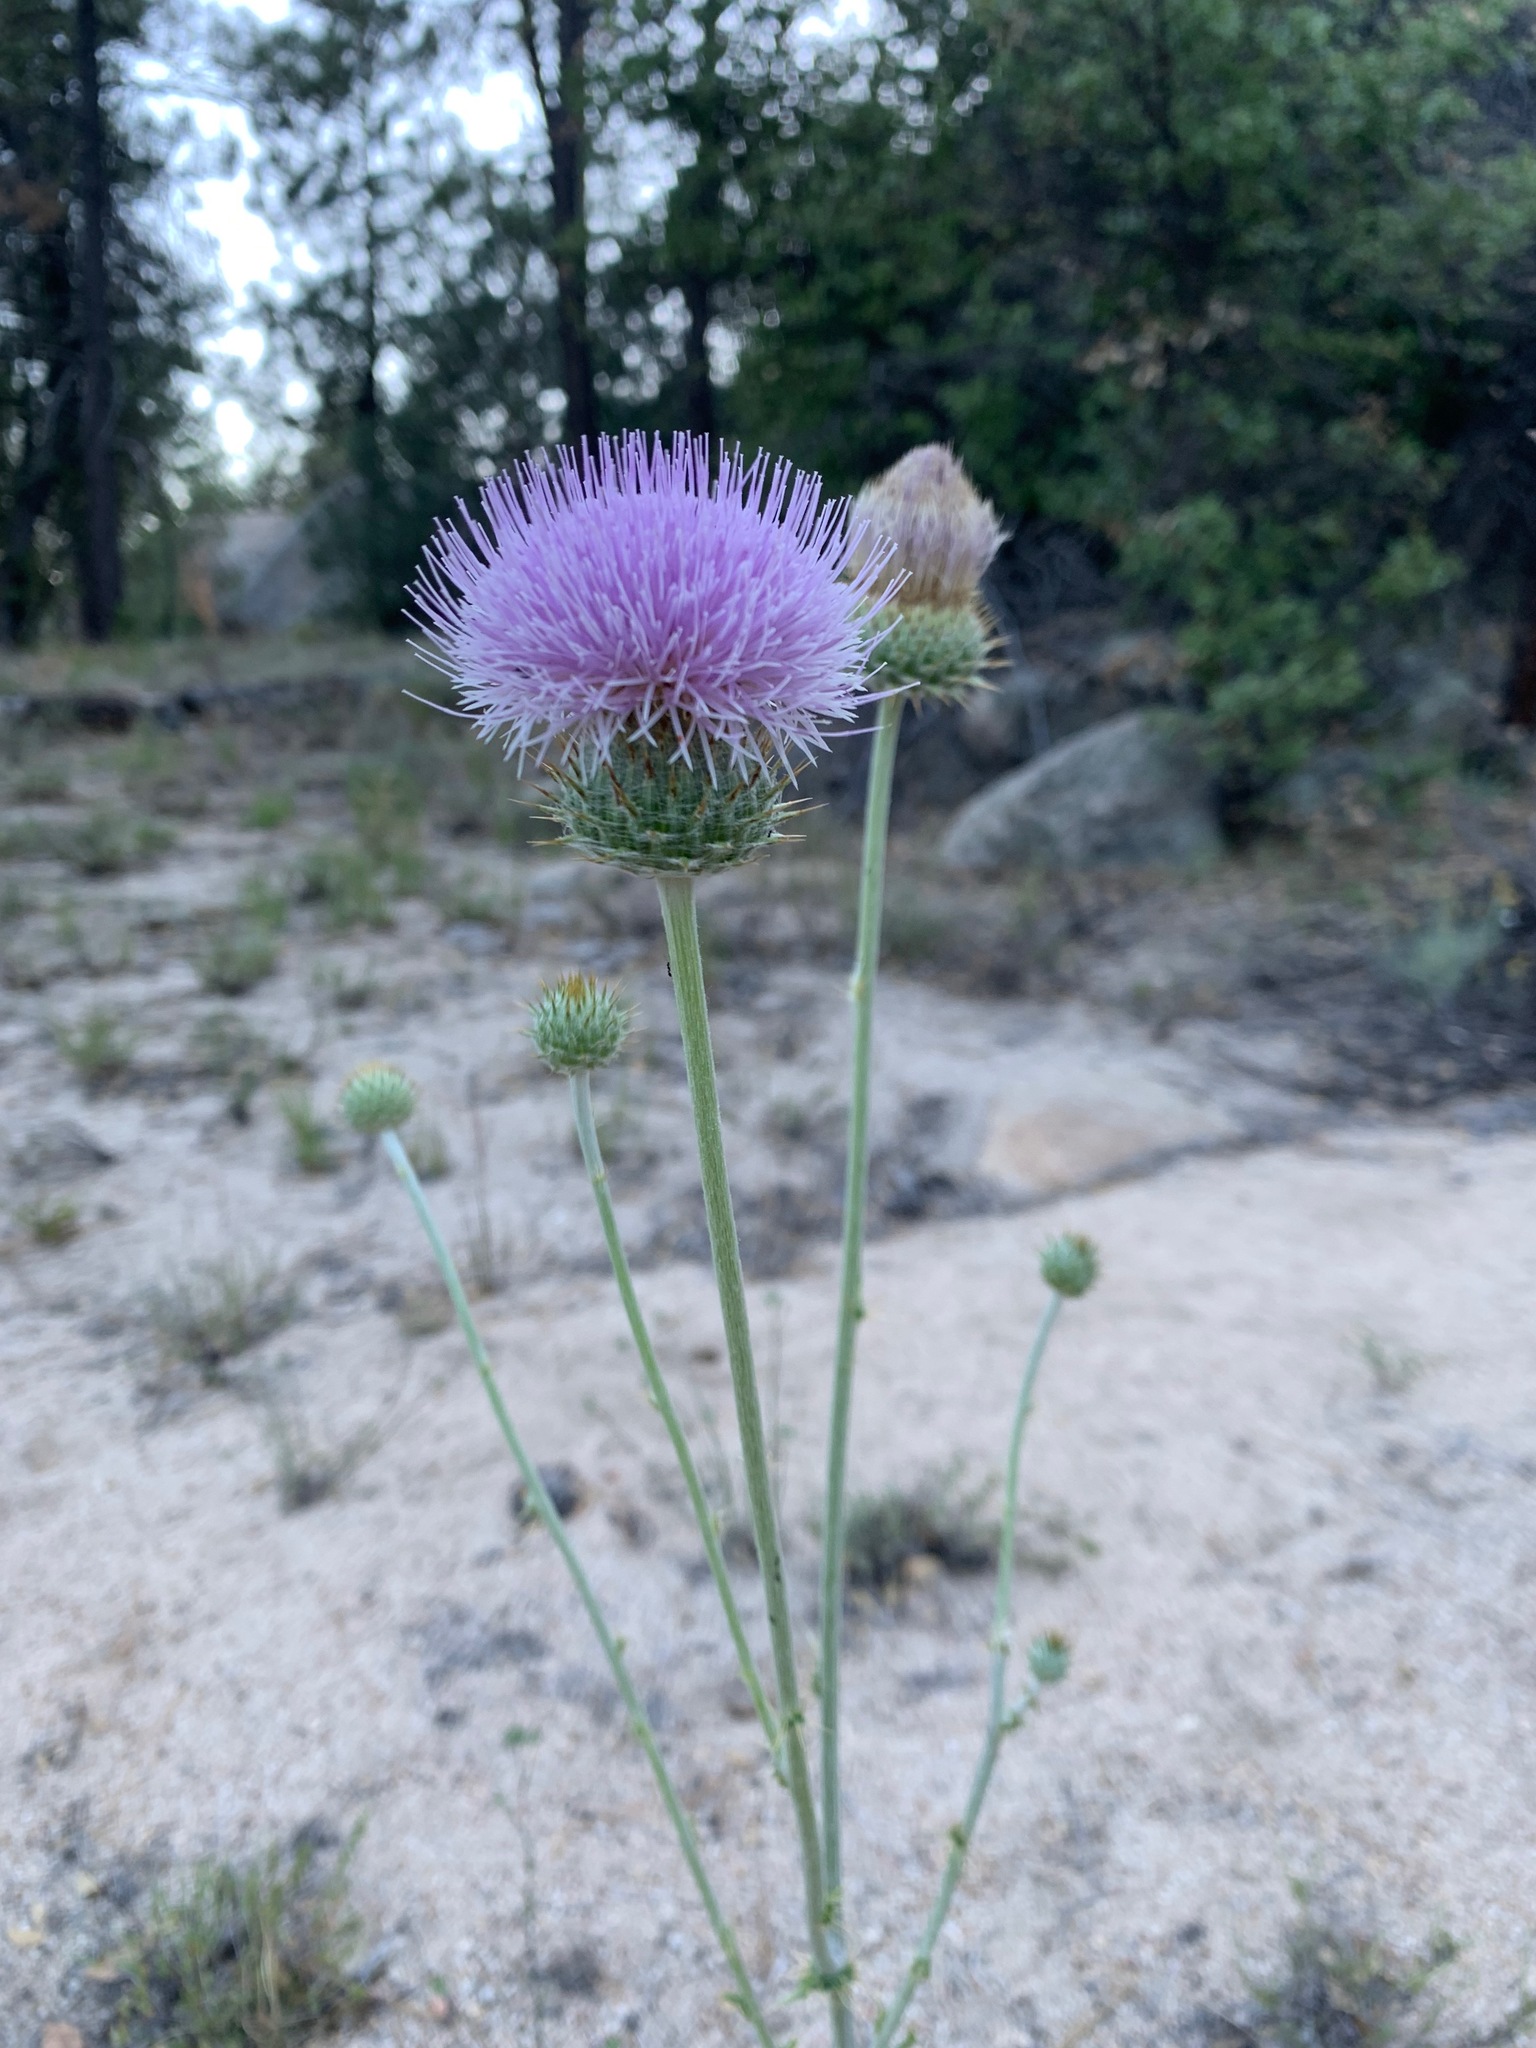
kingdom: Plantae
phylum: Tracheophyta
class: Magnoliopsida
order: Asterales
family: Asteraceae
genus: Cirsium
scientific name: Cirsium occidentale
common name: Western thistle
